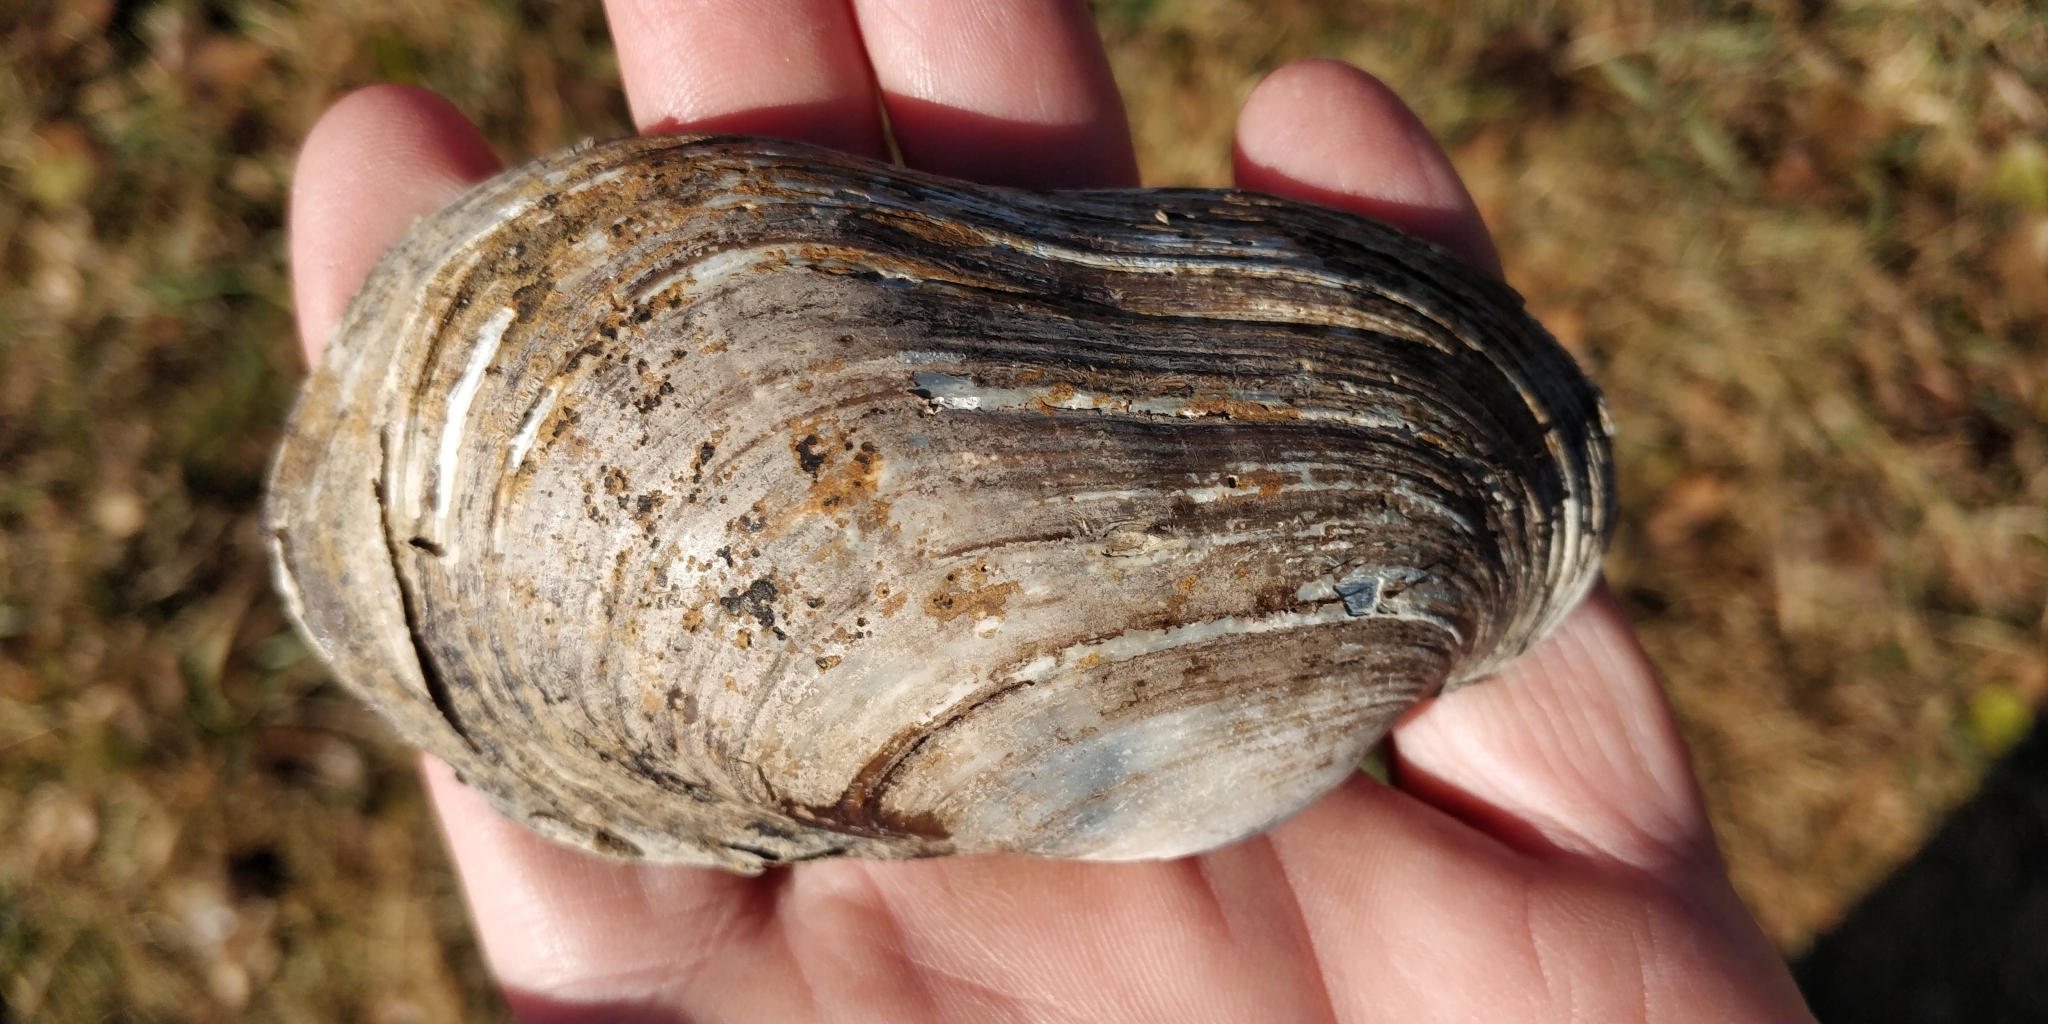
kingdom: Animalia
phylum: Mollusca
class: Bivalvia
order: Unionida
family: Unionidae
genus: Lampsilis
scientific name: Lampsilis siliquoidea
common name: Fatmucket
